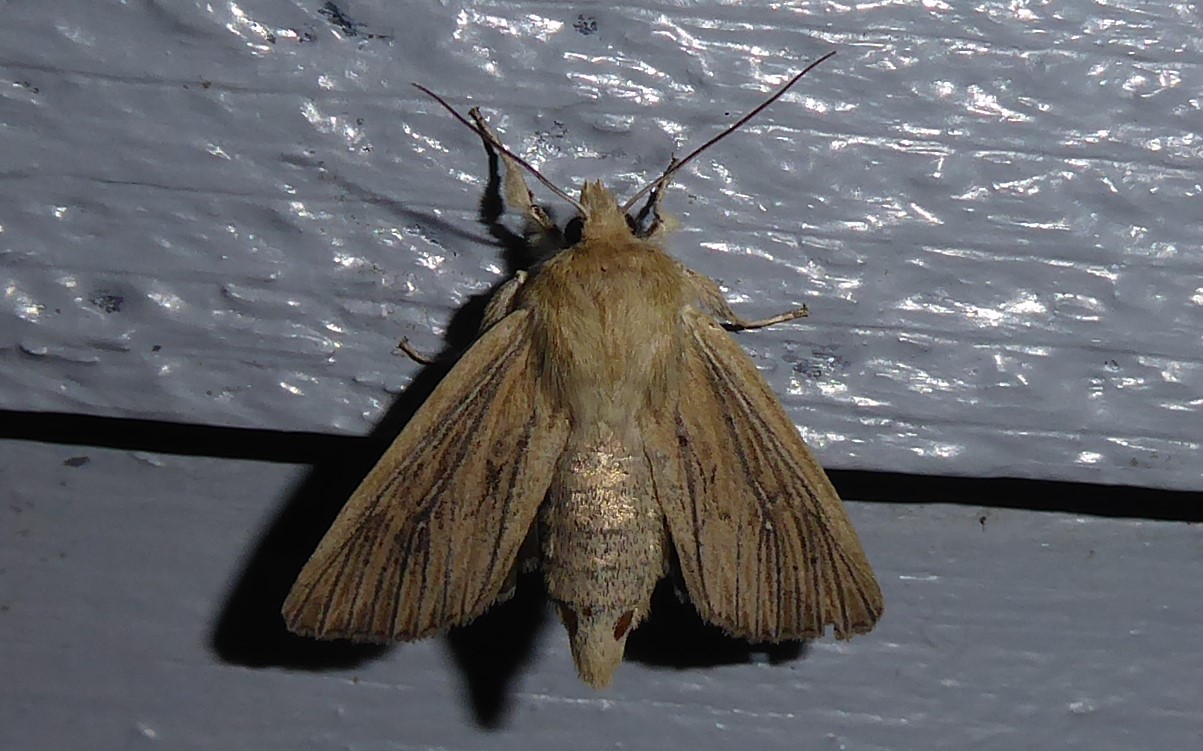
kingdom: Animalia
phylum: Arthropoda
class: Insecta
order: Lepidoptera
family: Noctuidae
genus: Ichneutica
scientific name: Ichneutica arotis
